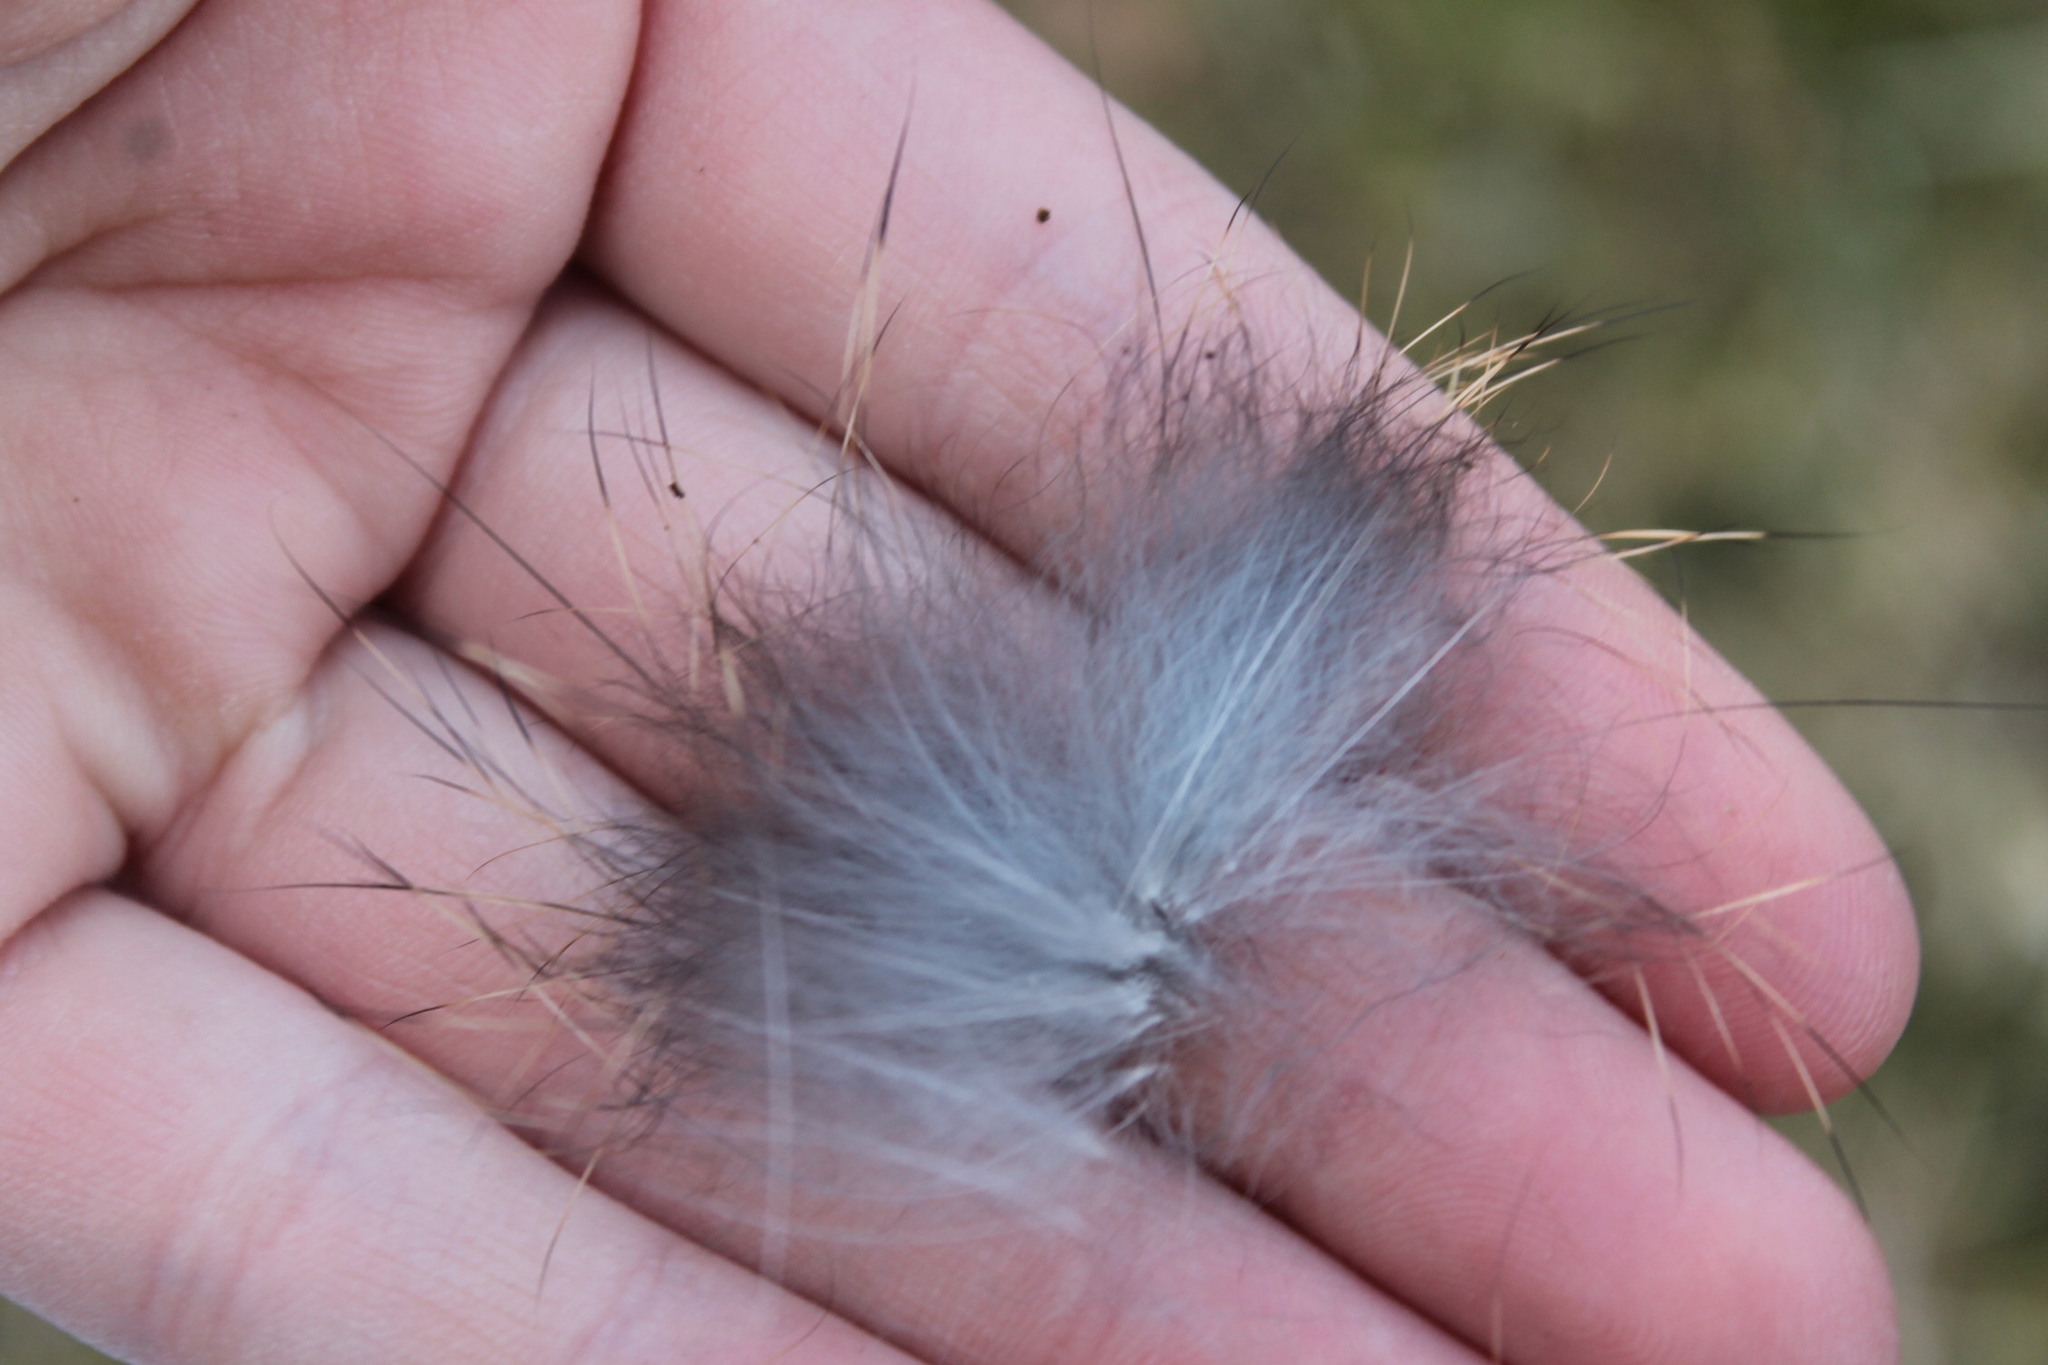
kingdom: Animalia
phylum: Chordata
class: Mammalia
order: Lagomorpha
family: Leporidae
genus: Sylvilagus
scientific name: Sylvilagus floridanus
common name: Eastern cottontail
